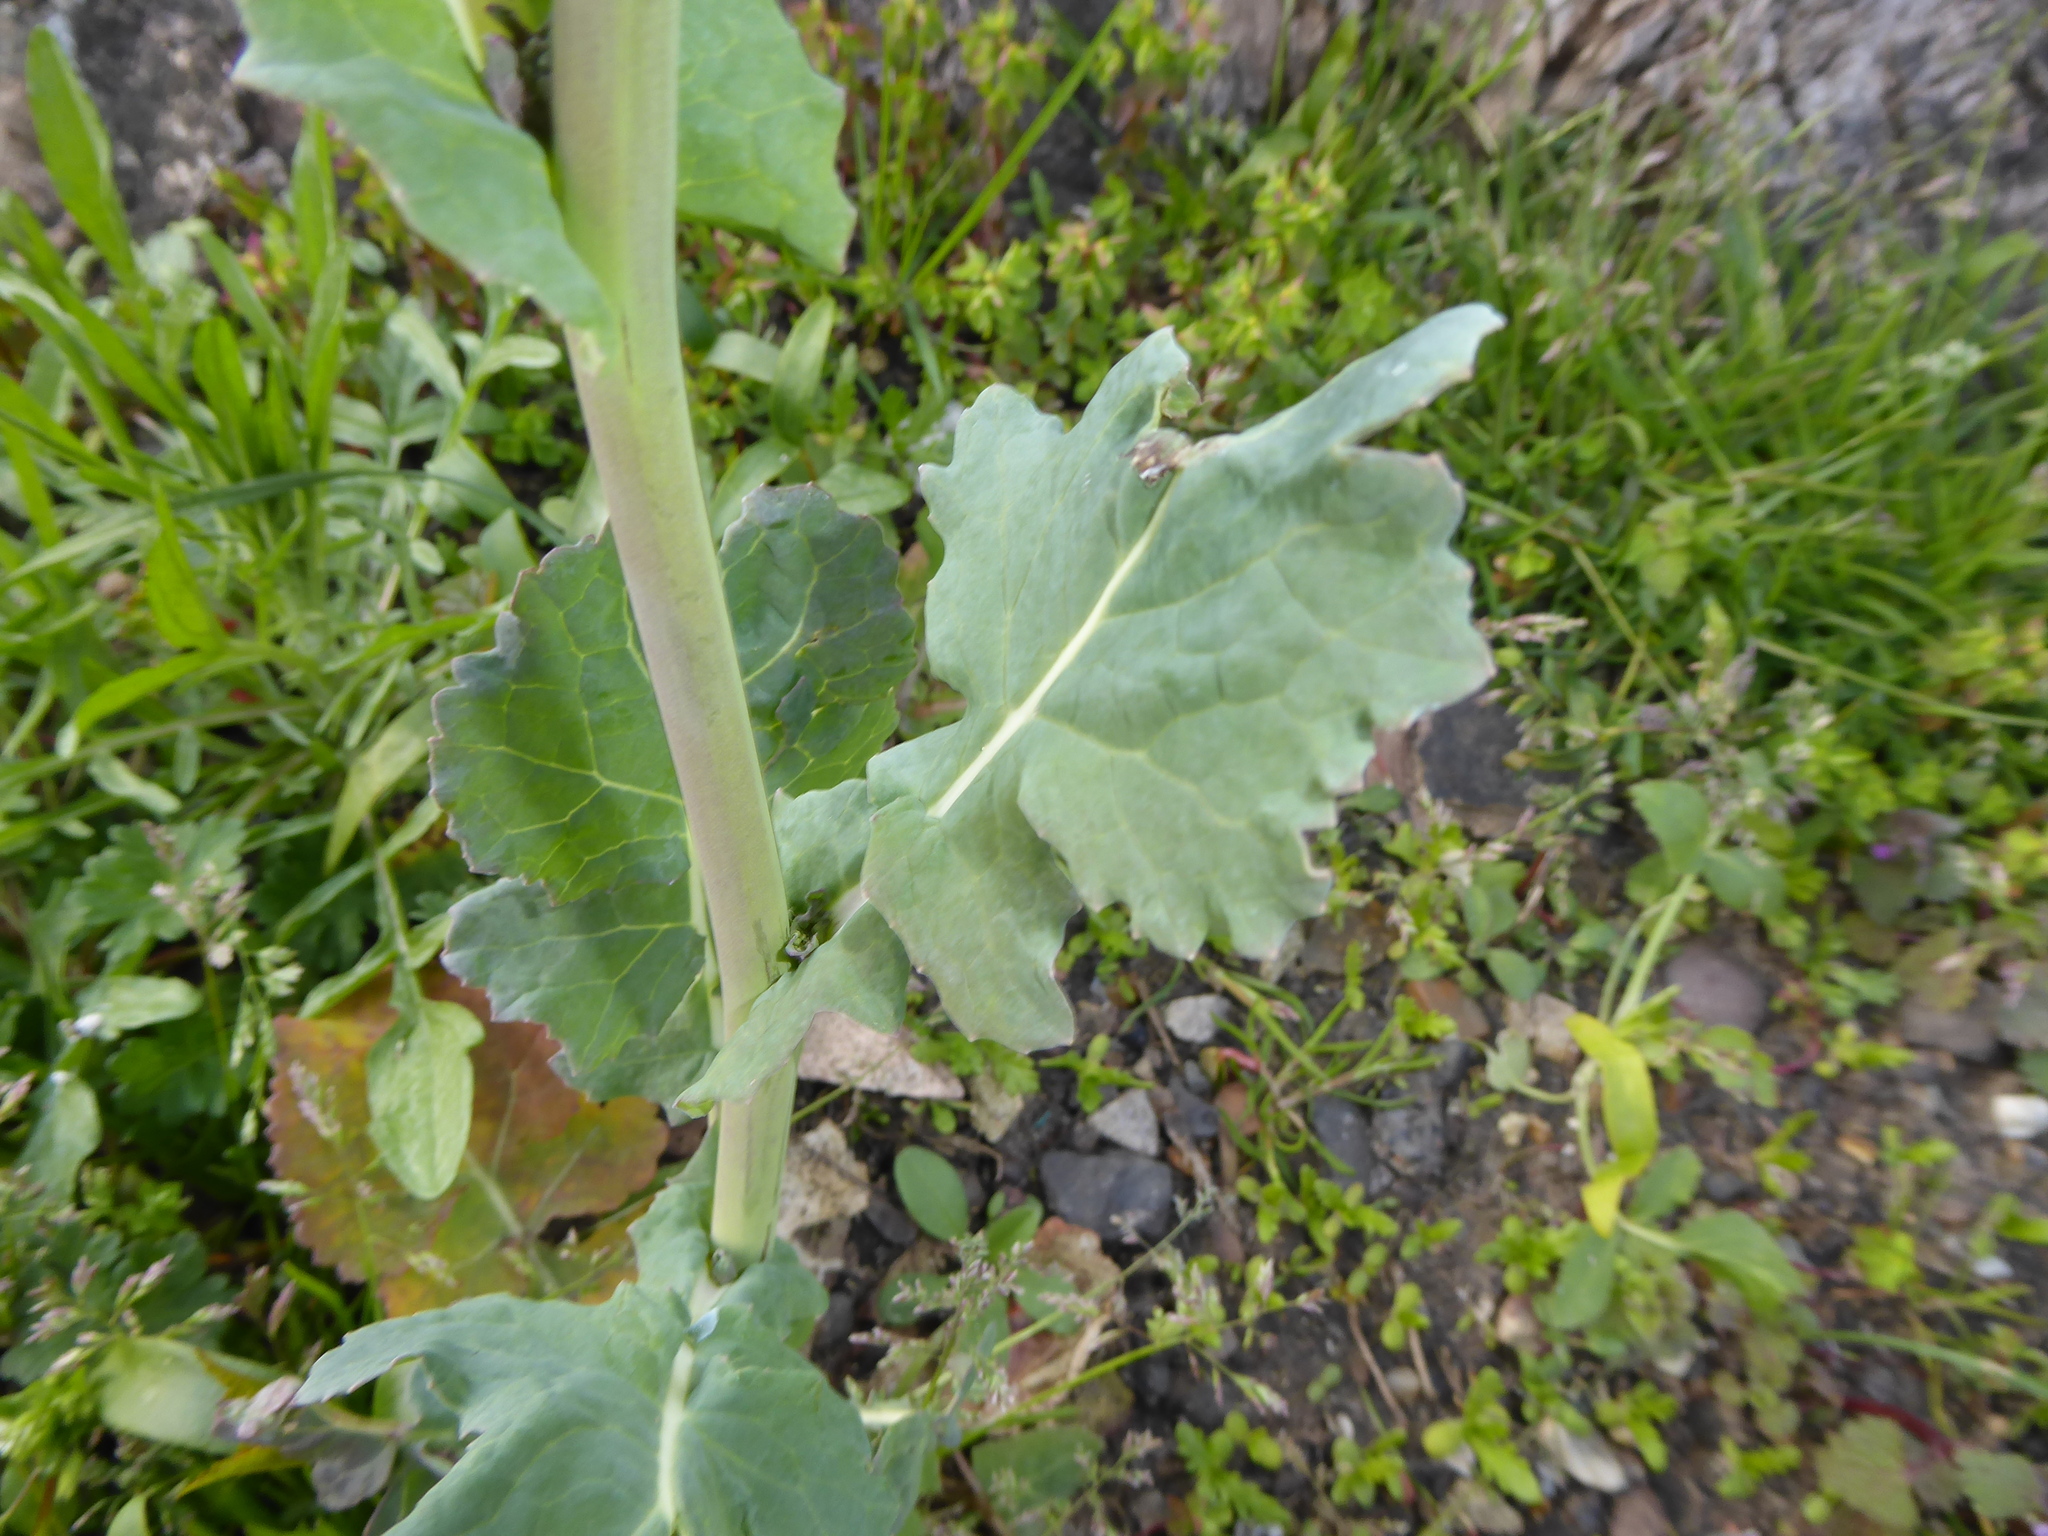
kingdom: Plantae
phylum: Tracheophyta
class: Magnoliopsida
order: Brassicales
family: Brassicaceae
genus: Brassica
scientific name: Brassica napus
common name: Rape
